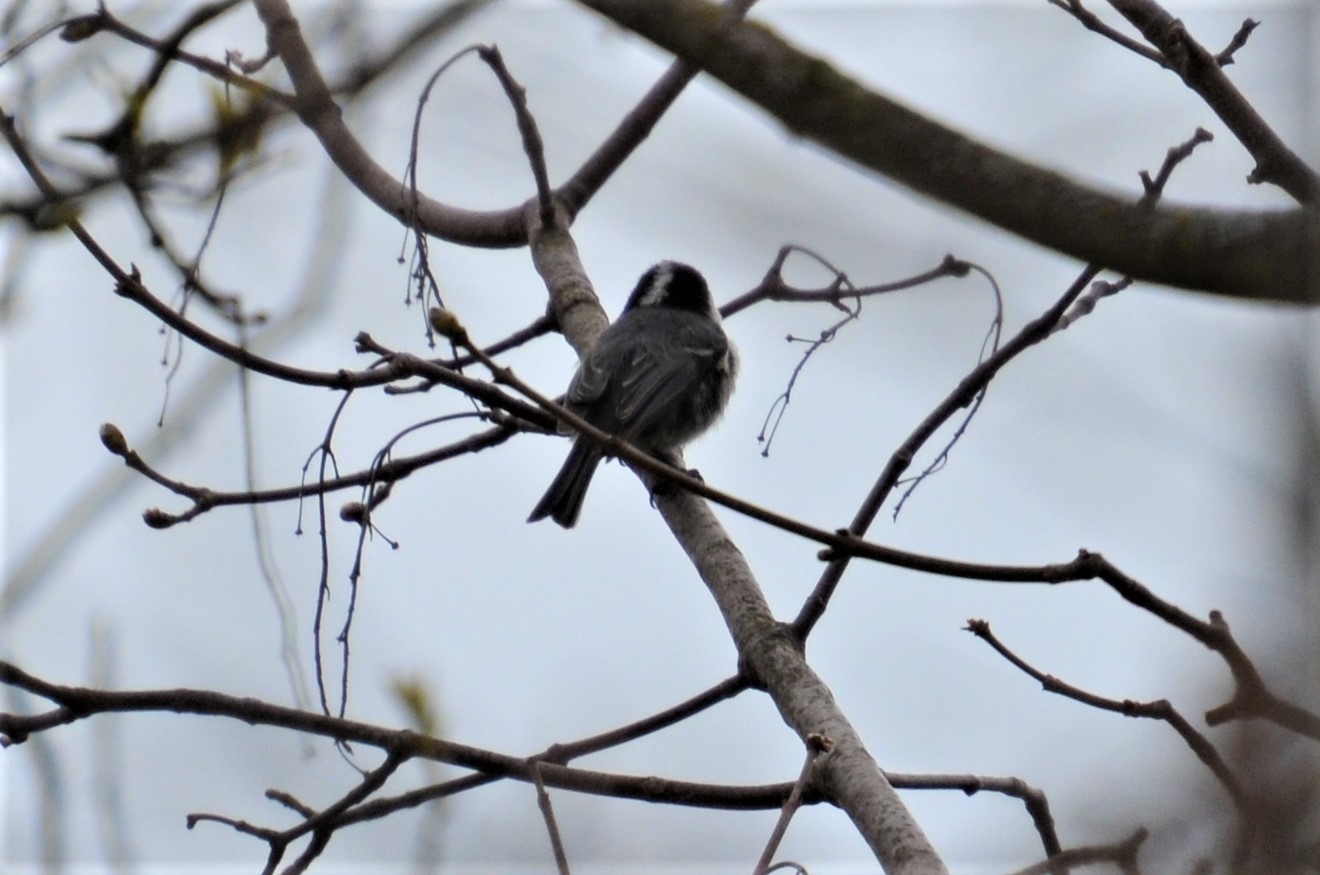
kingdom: Animalia
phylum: Chordata
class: Aves
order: Passeriformes
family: Paridae
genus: Periparus
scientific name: Periparus ater
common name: Coal tit
